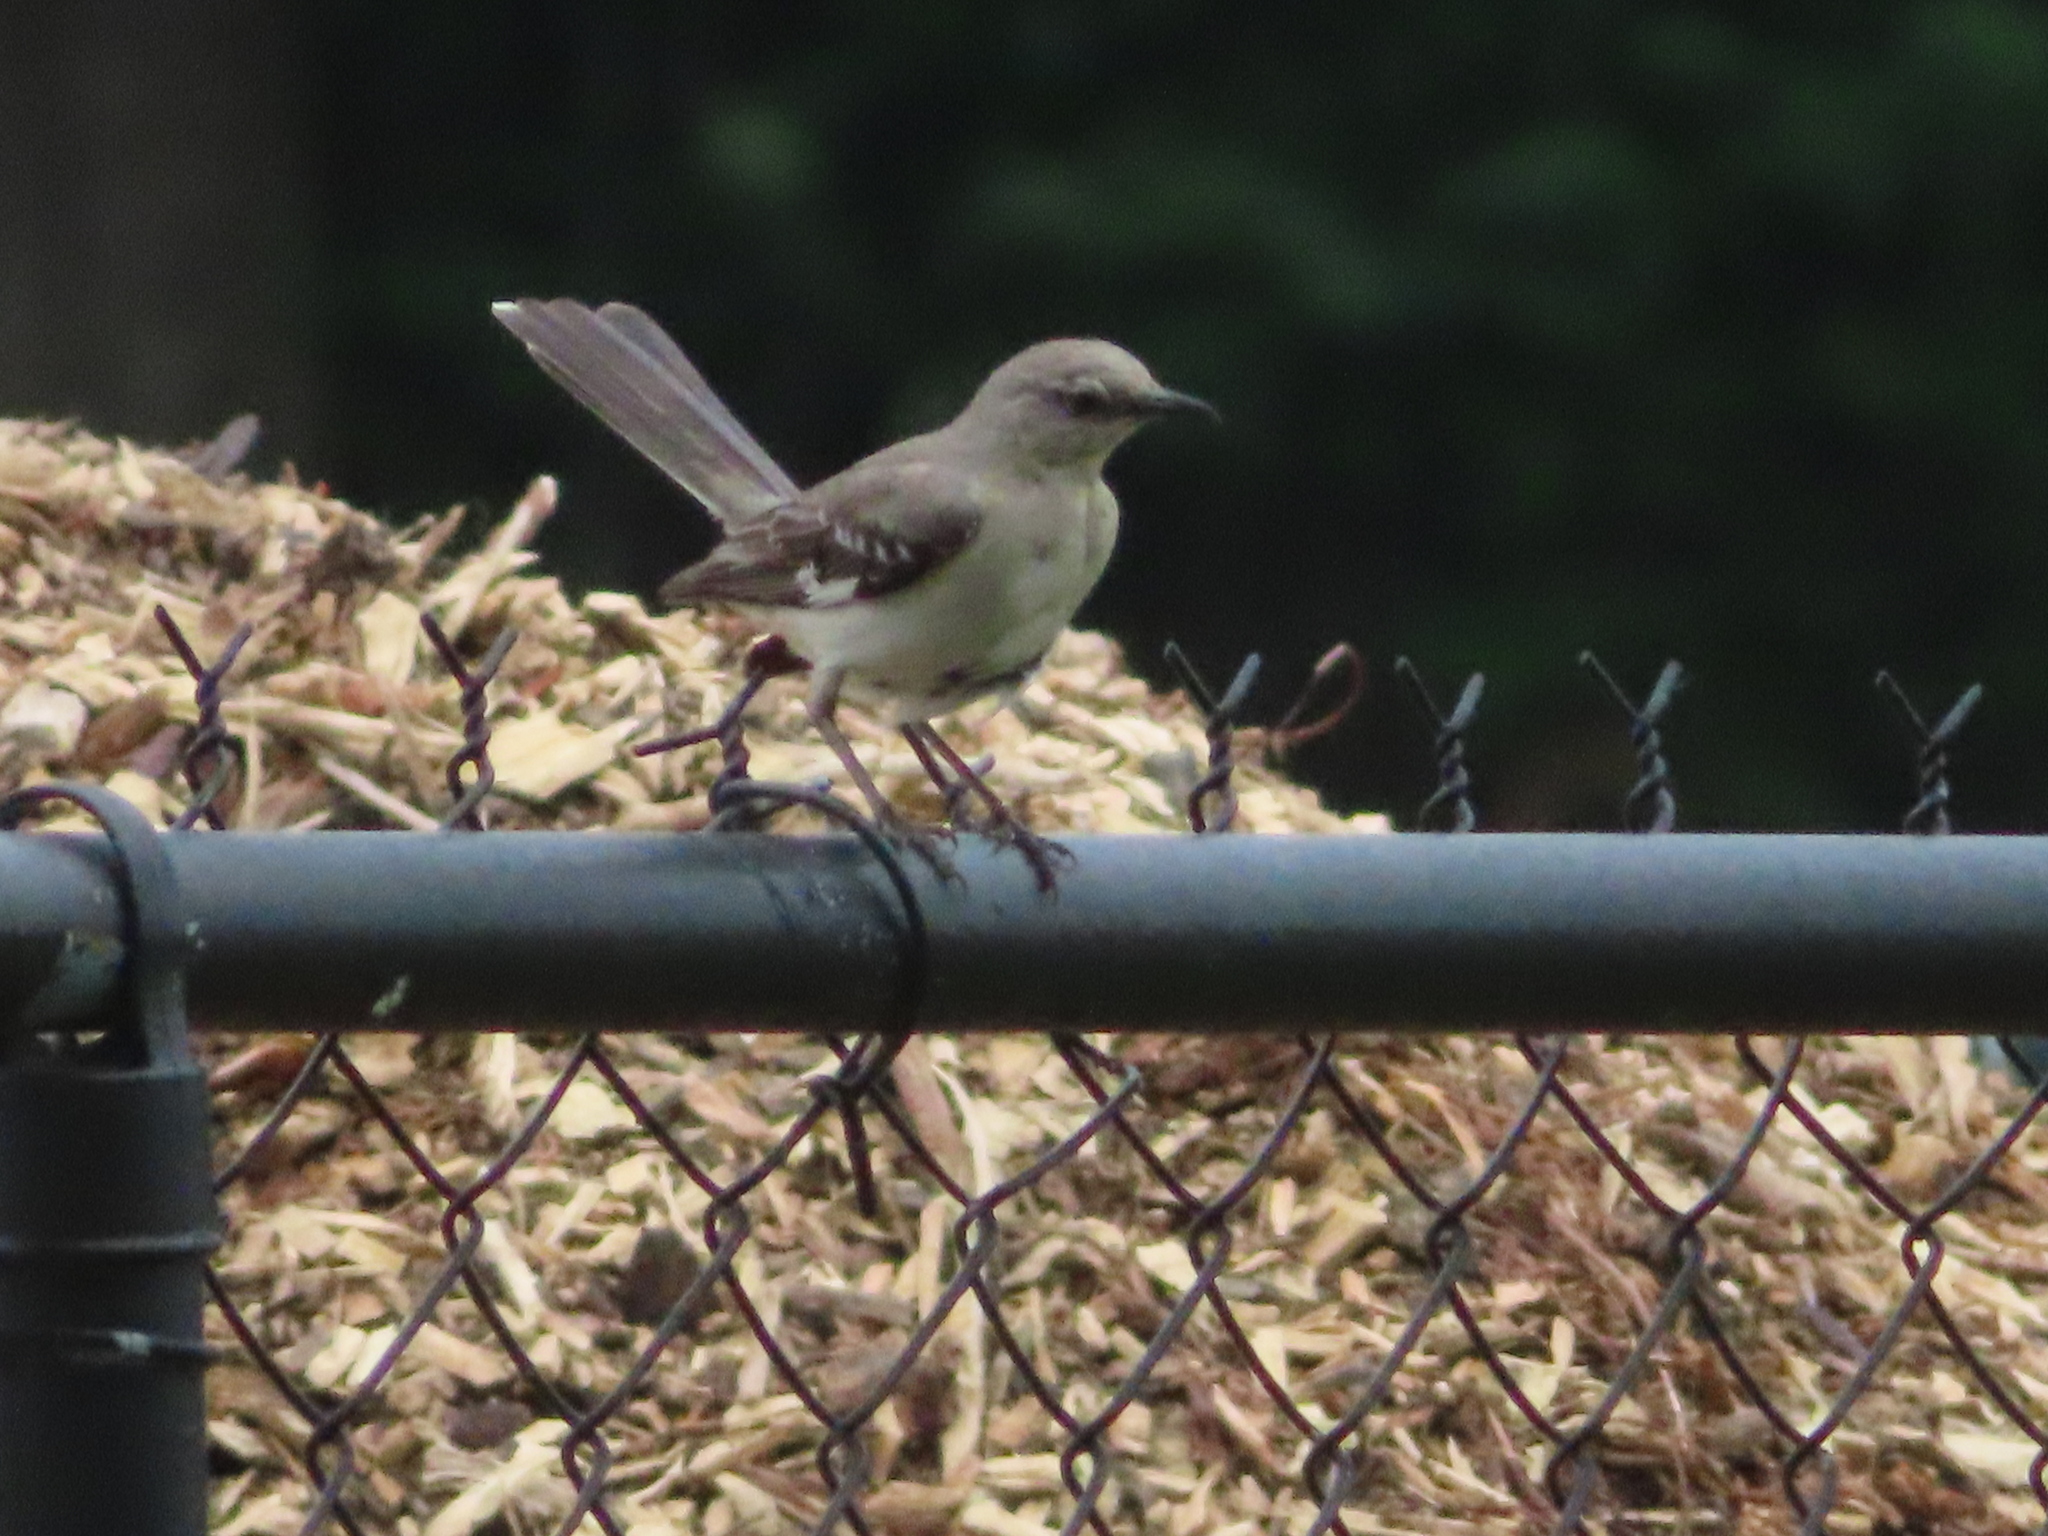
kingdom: Animalia
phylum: Chordata
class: Aves
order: Passeriformes
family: Mimidae
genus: Mimus
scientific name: Mimus polyglottos
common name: Northern mockingbird
